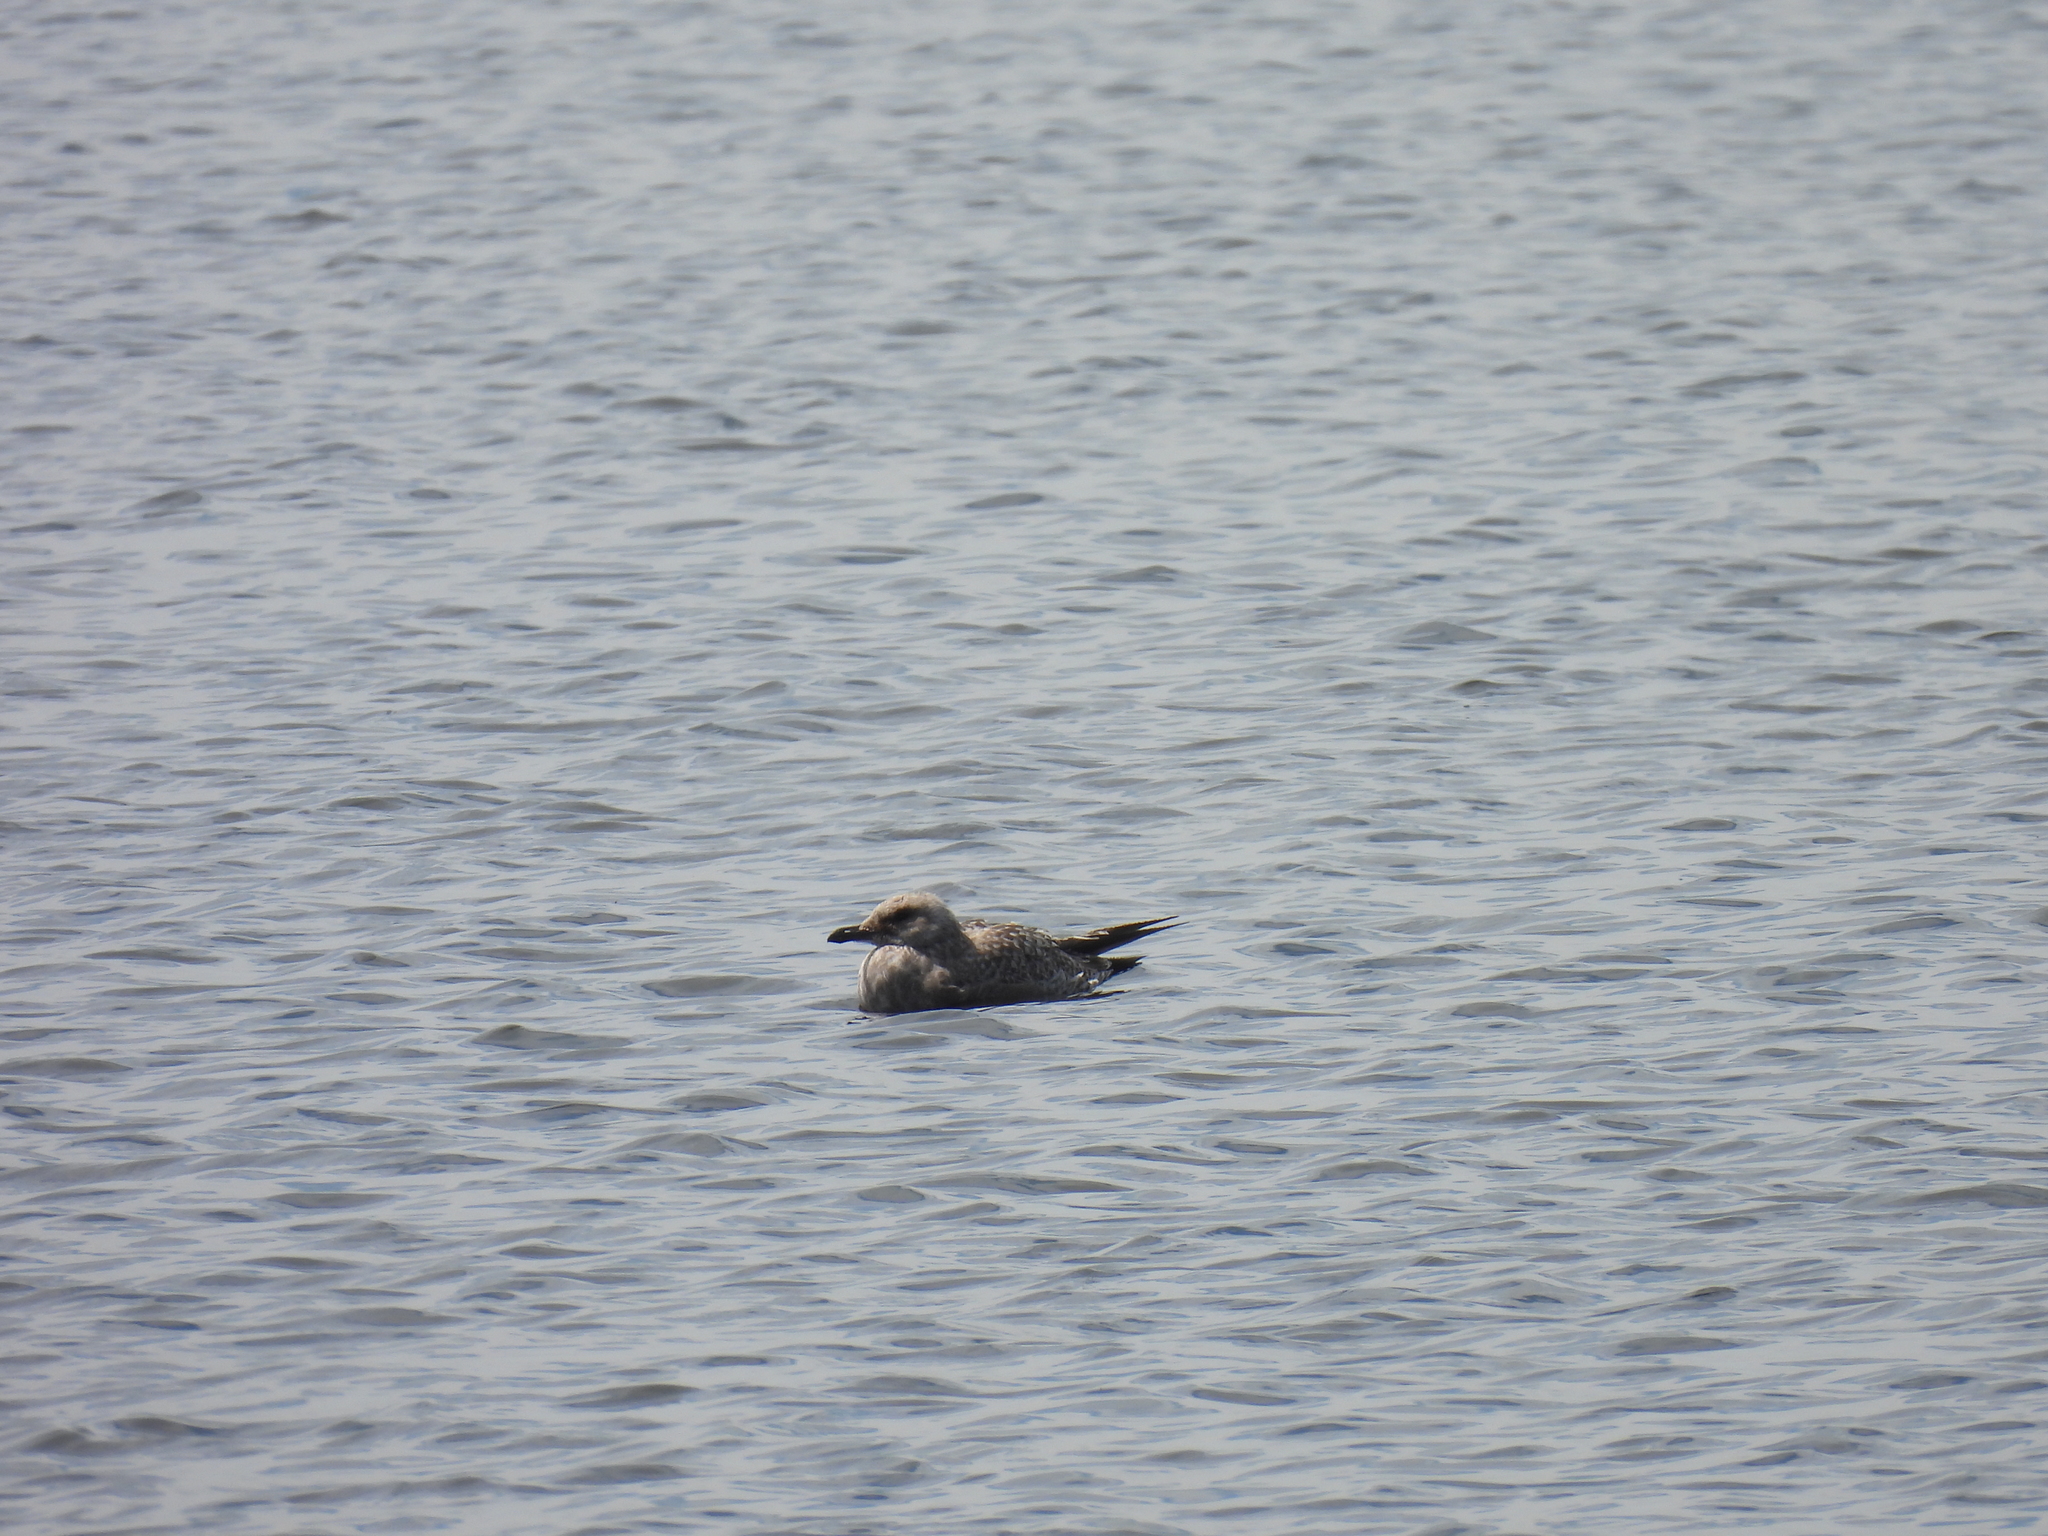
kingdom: Animalia
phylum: Chordata
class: Aves
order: Charadriiformes
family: Laridae
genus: Larus
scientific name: Larus argentatus
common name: Herring gull
